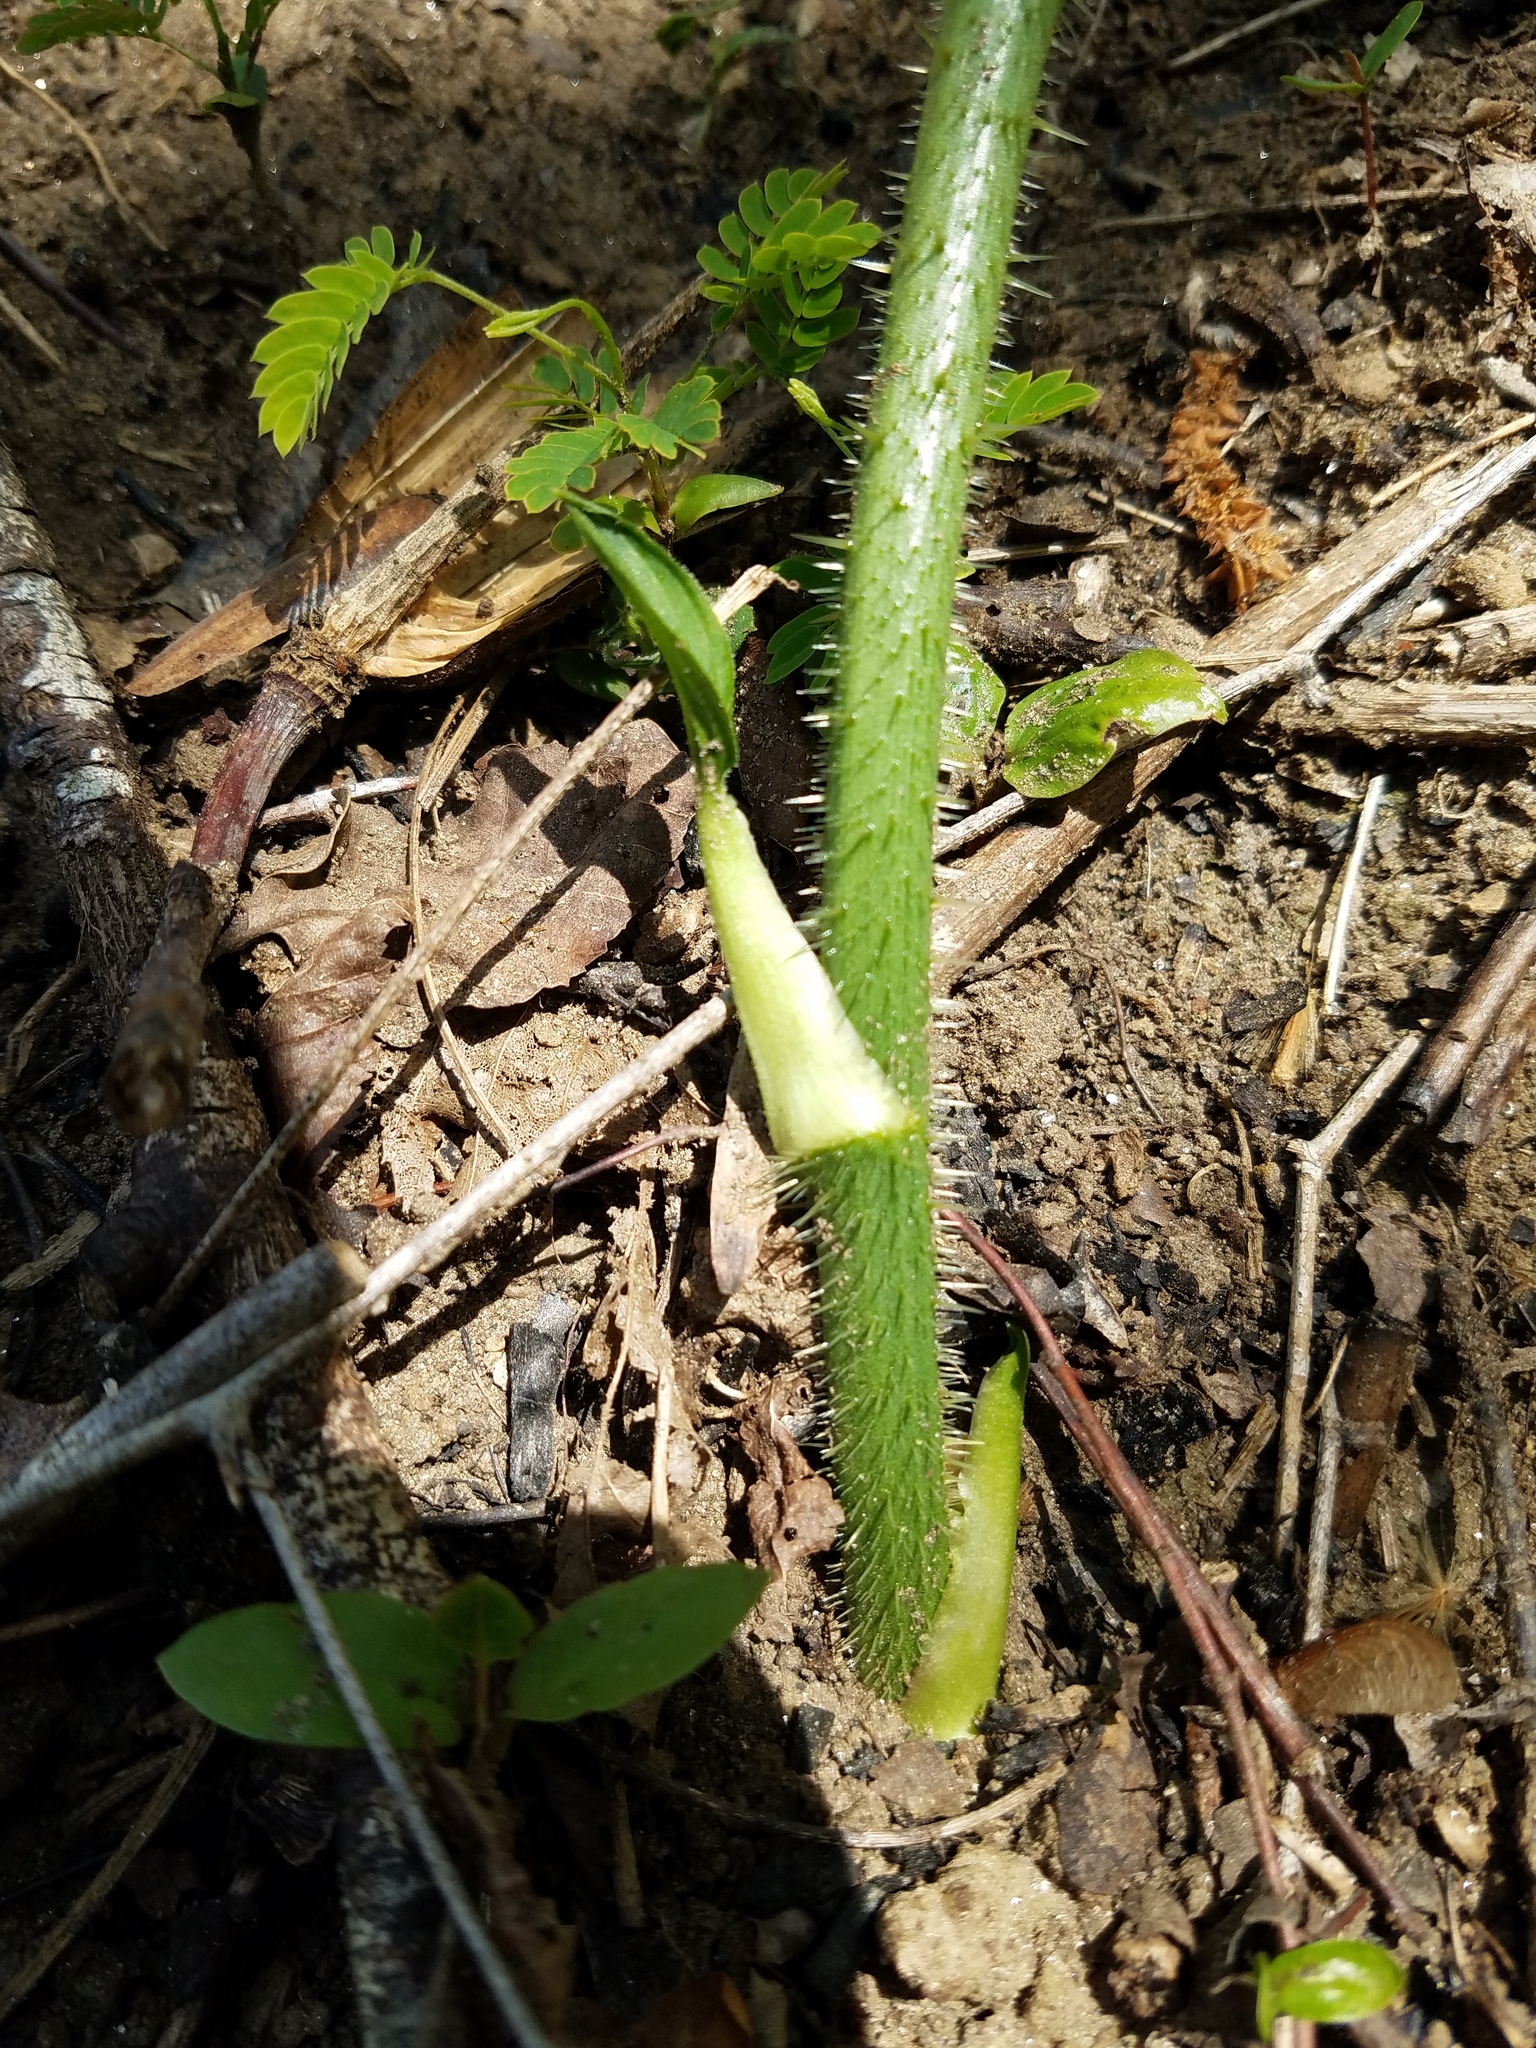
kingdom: Plantae
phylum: Tracheophyta
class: Liliopsida
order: Liliales
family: Smilacaceae
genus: Smilax
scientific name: Smilax tamnoides
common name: Hellfetter
